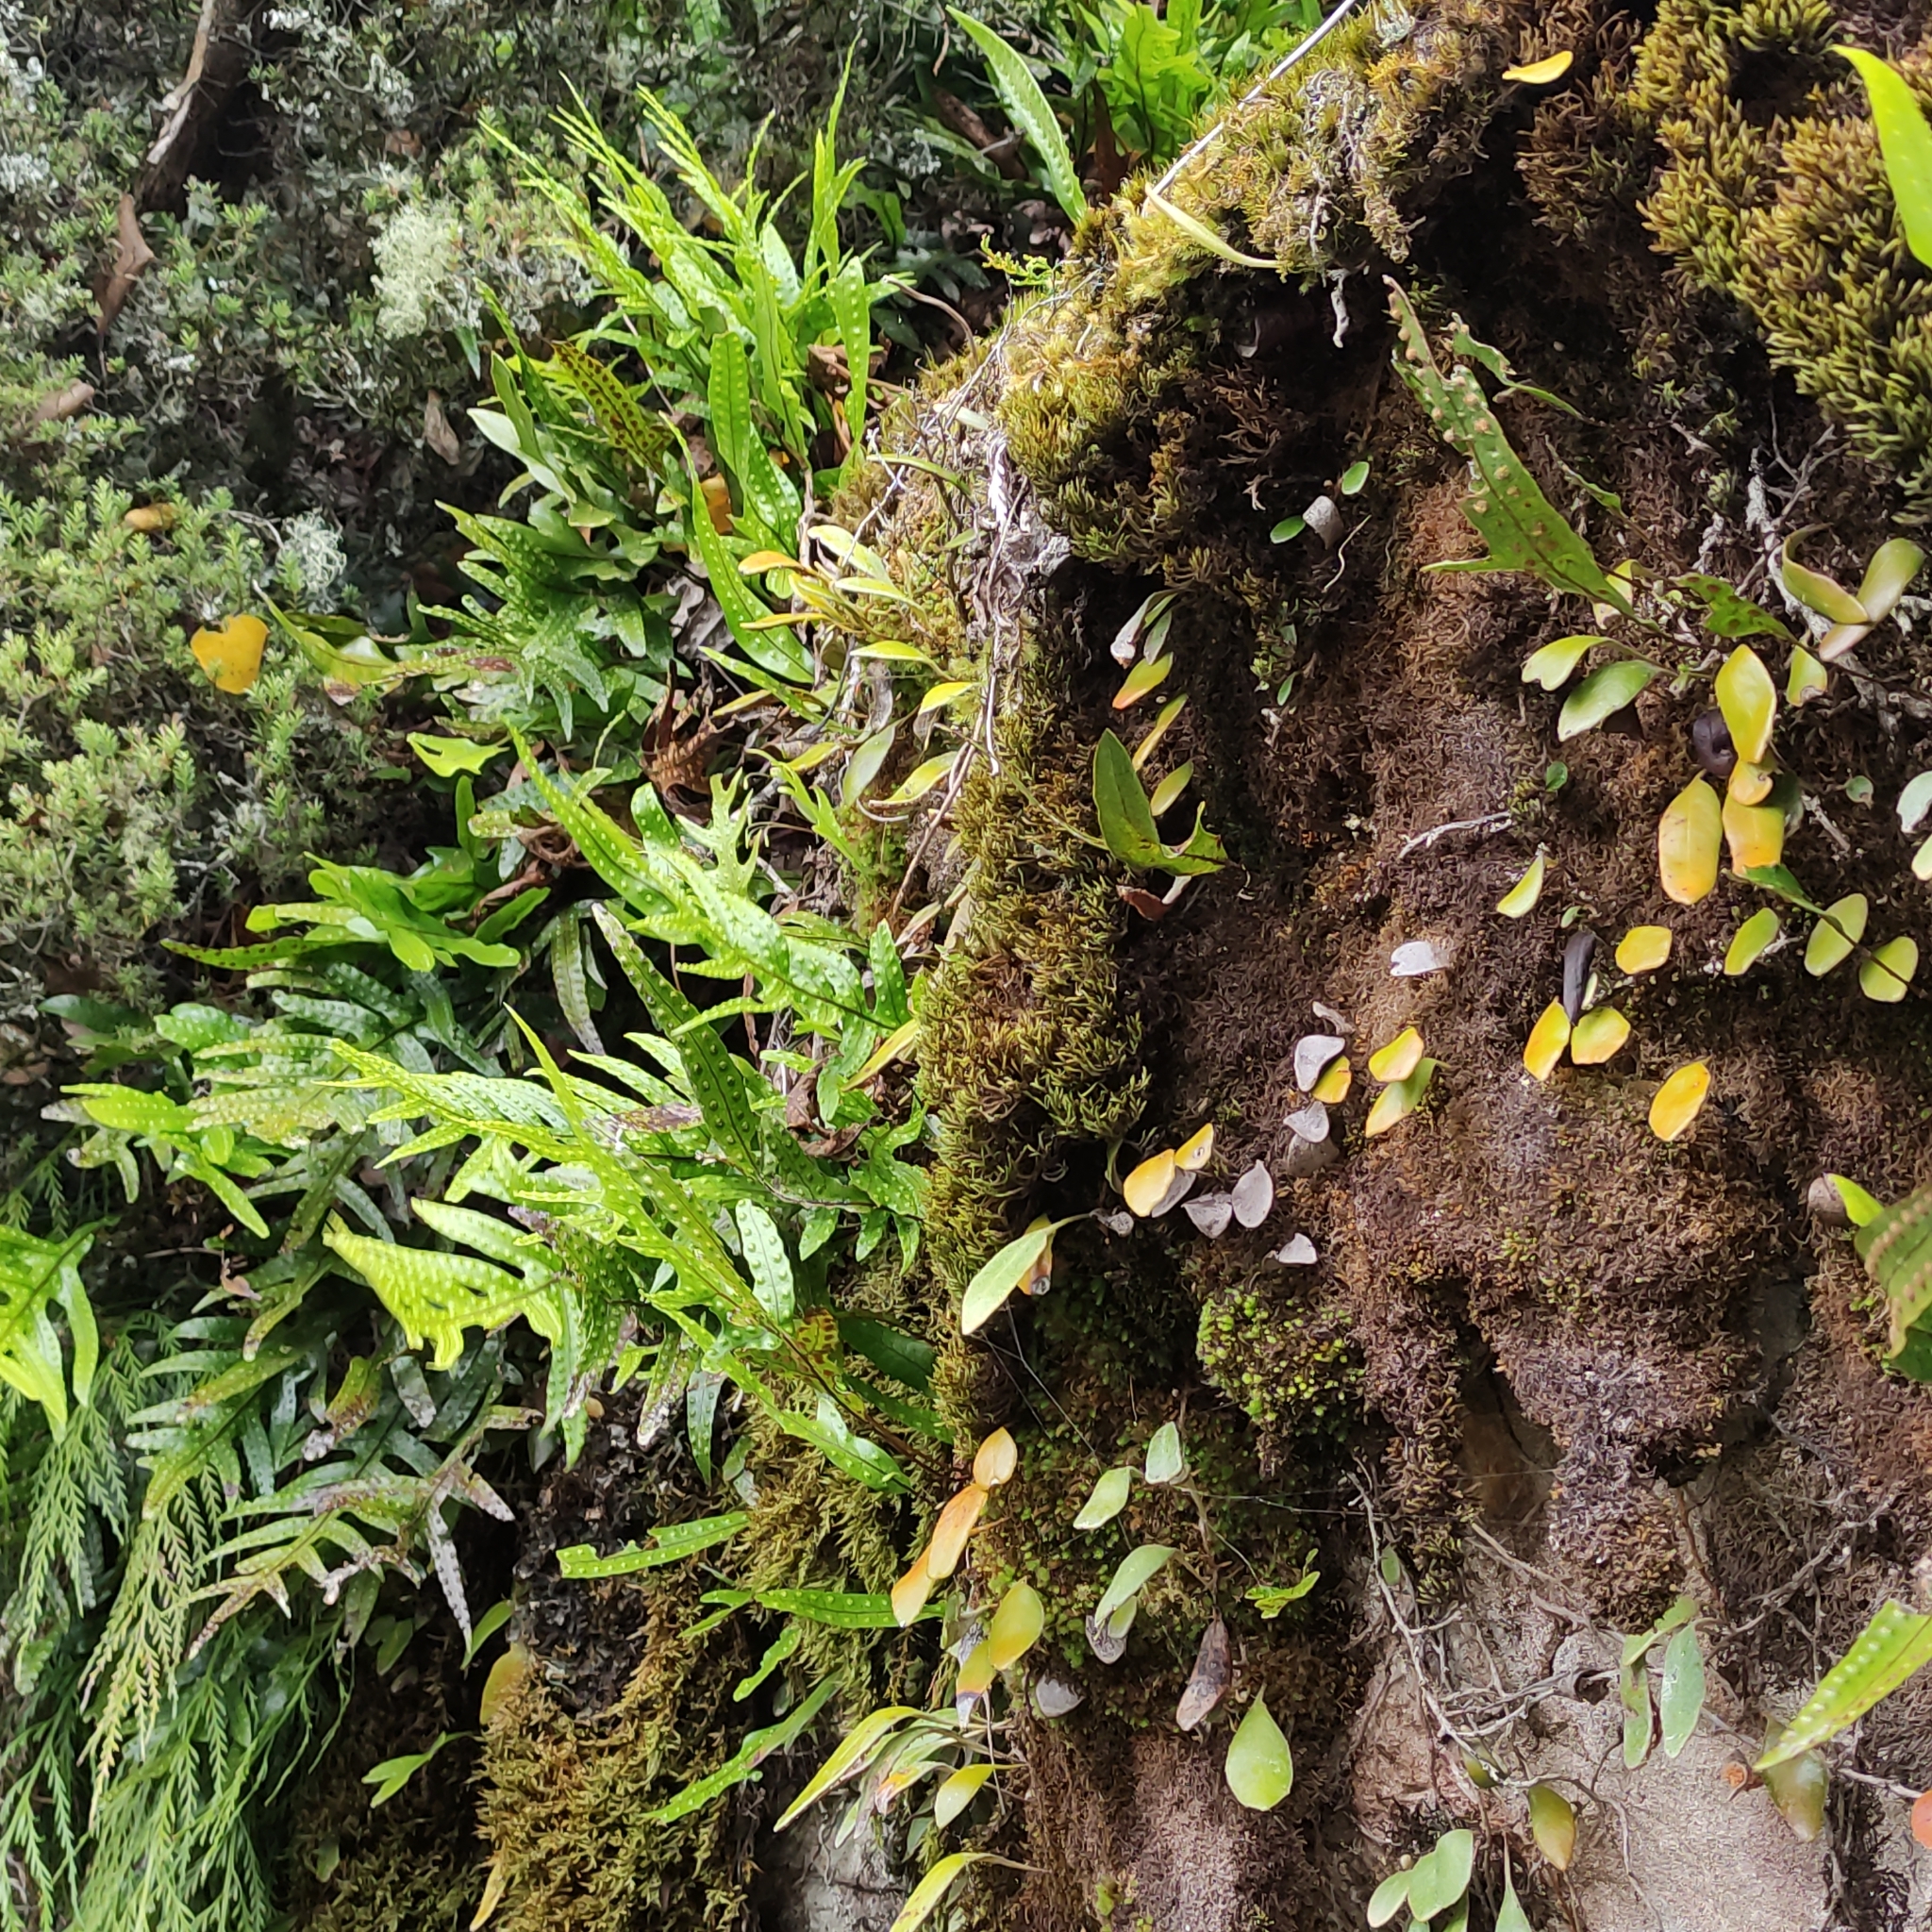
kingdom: Plantae
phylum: Tracheophyta
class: Polypodiopsida
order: Polypodiales
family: Polypodiaceae
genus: Lecanopteris
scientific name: Lecanopteris pustulata
